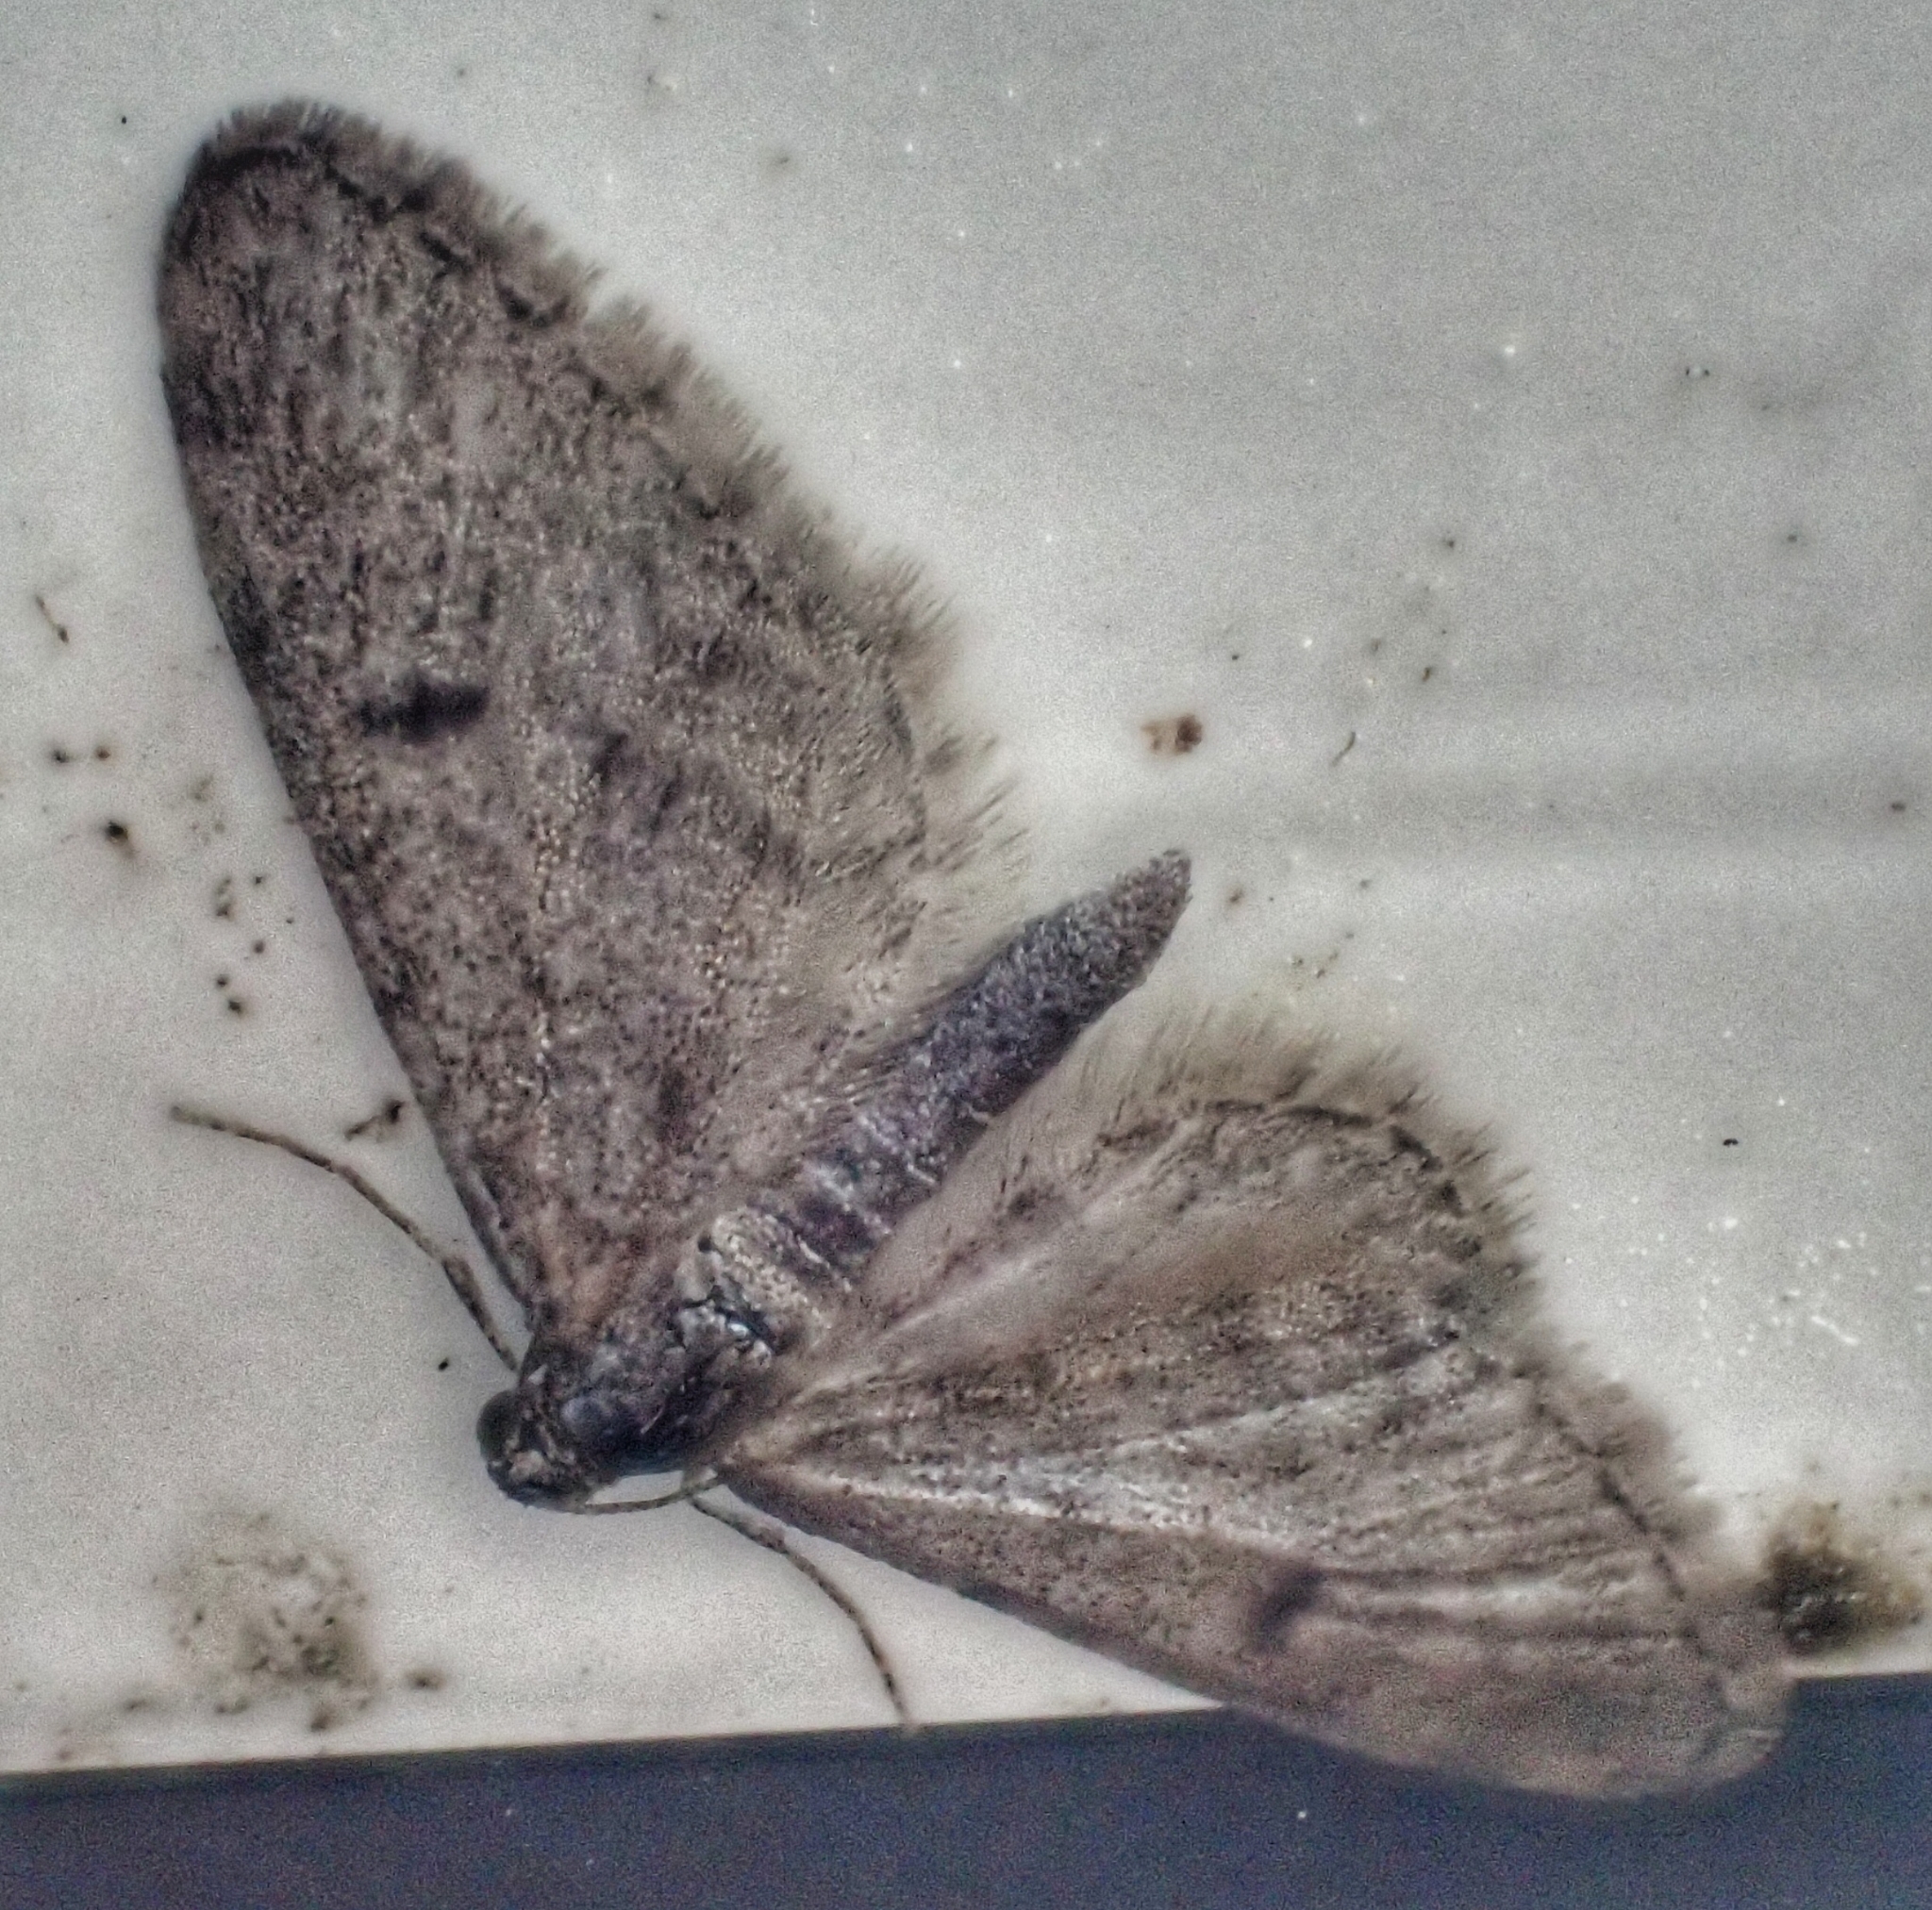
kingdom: Animalia
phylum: Arthropoda
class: Insecta
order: Lepidoptera
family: Geometridae
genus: Eupithecia
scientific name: Eupithecia indigata
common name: Ochreous pug
